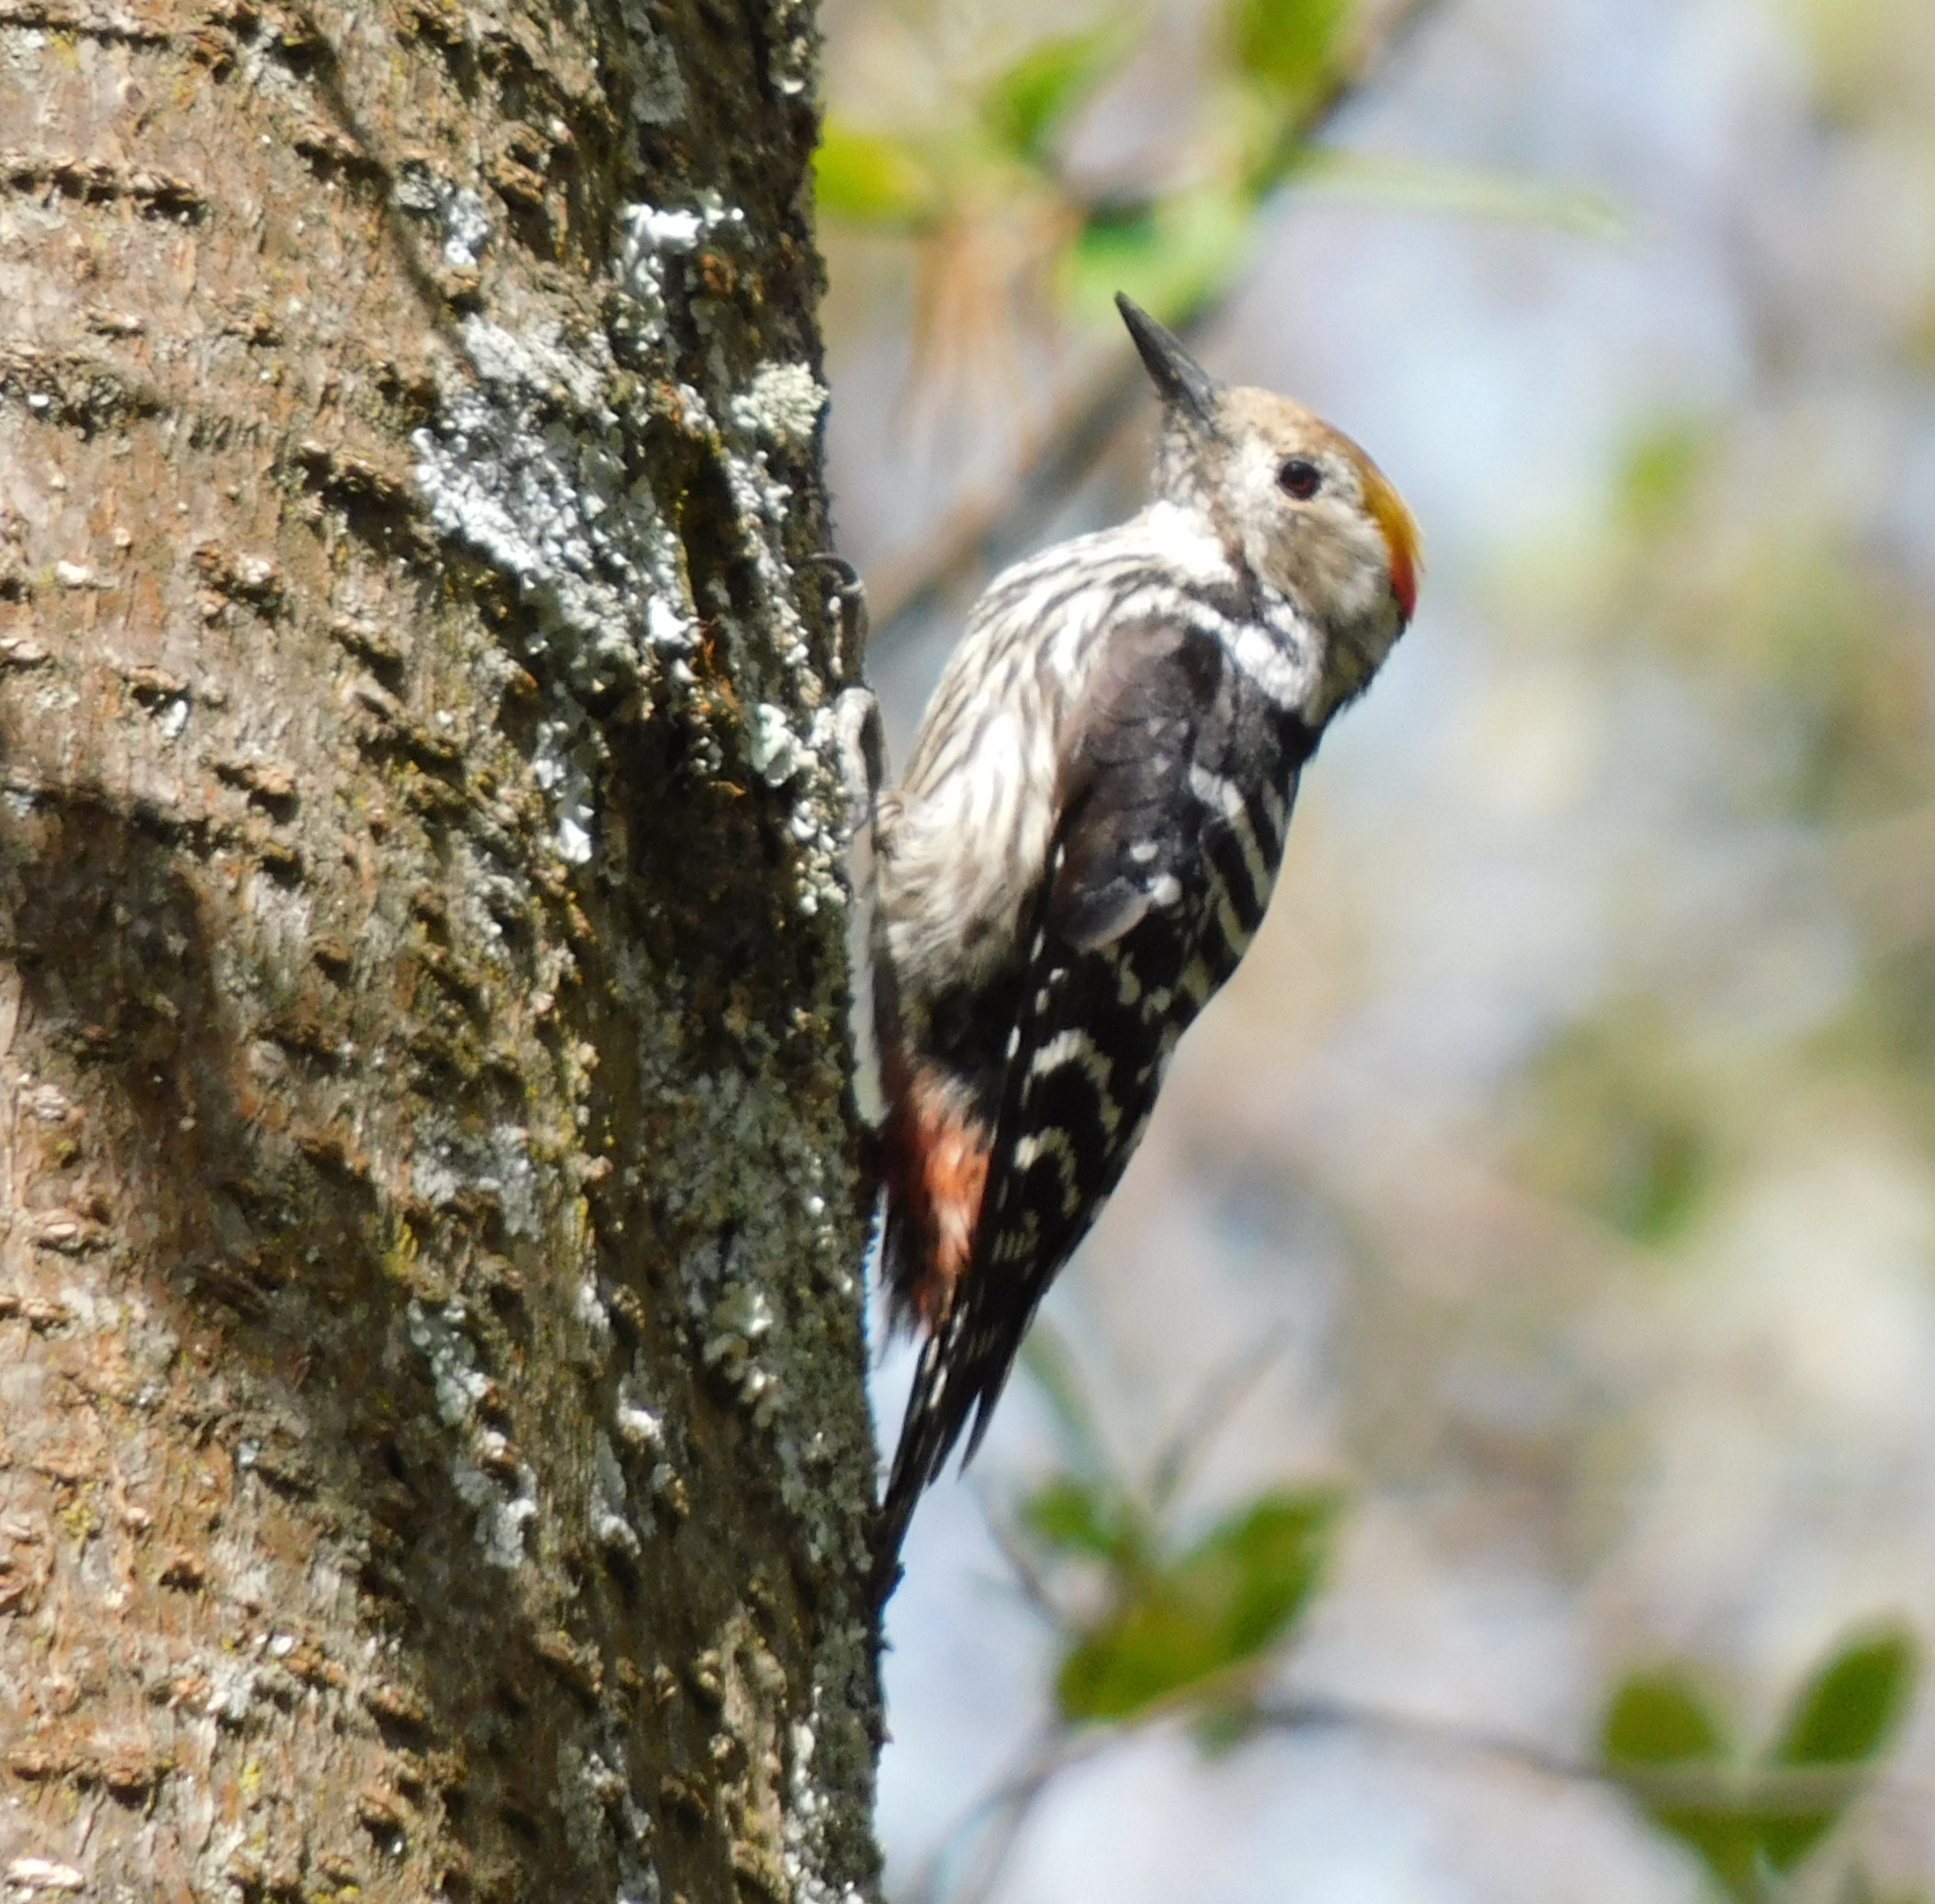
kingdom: Animalia
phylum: Chordata
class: Aves
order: Piciformes
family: Picidae
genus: Dendrocoptes
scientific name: Dendrocoptes auriceps
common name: Brown-fronted woodpecker
